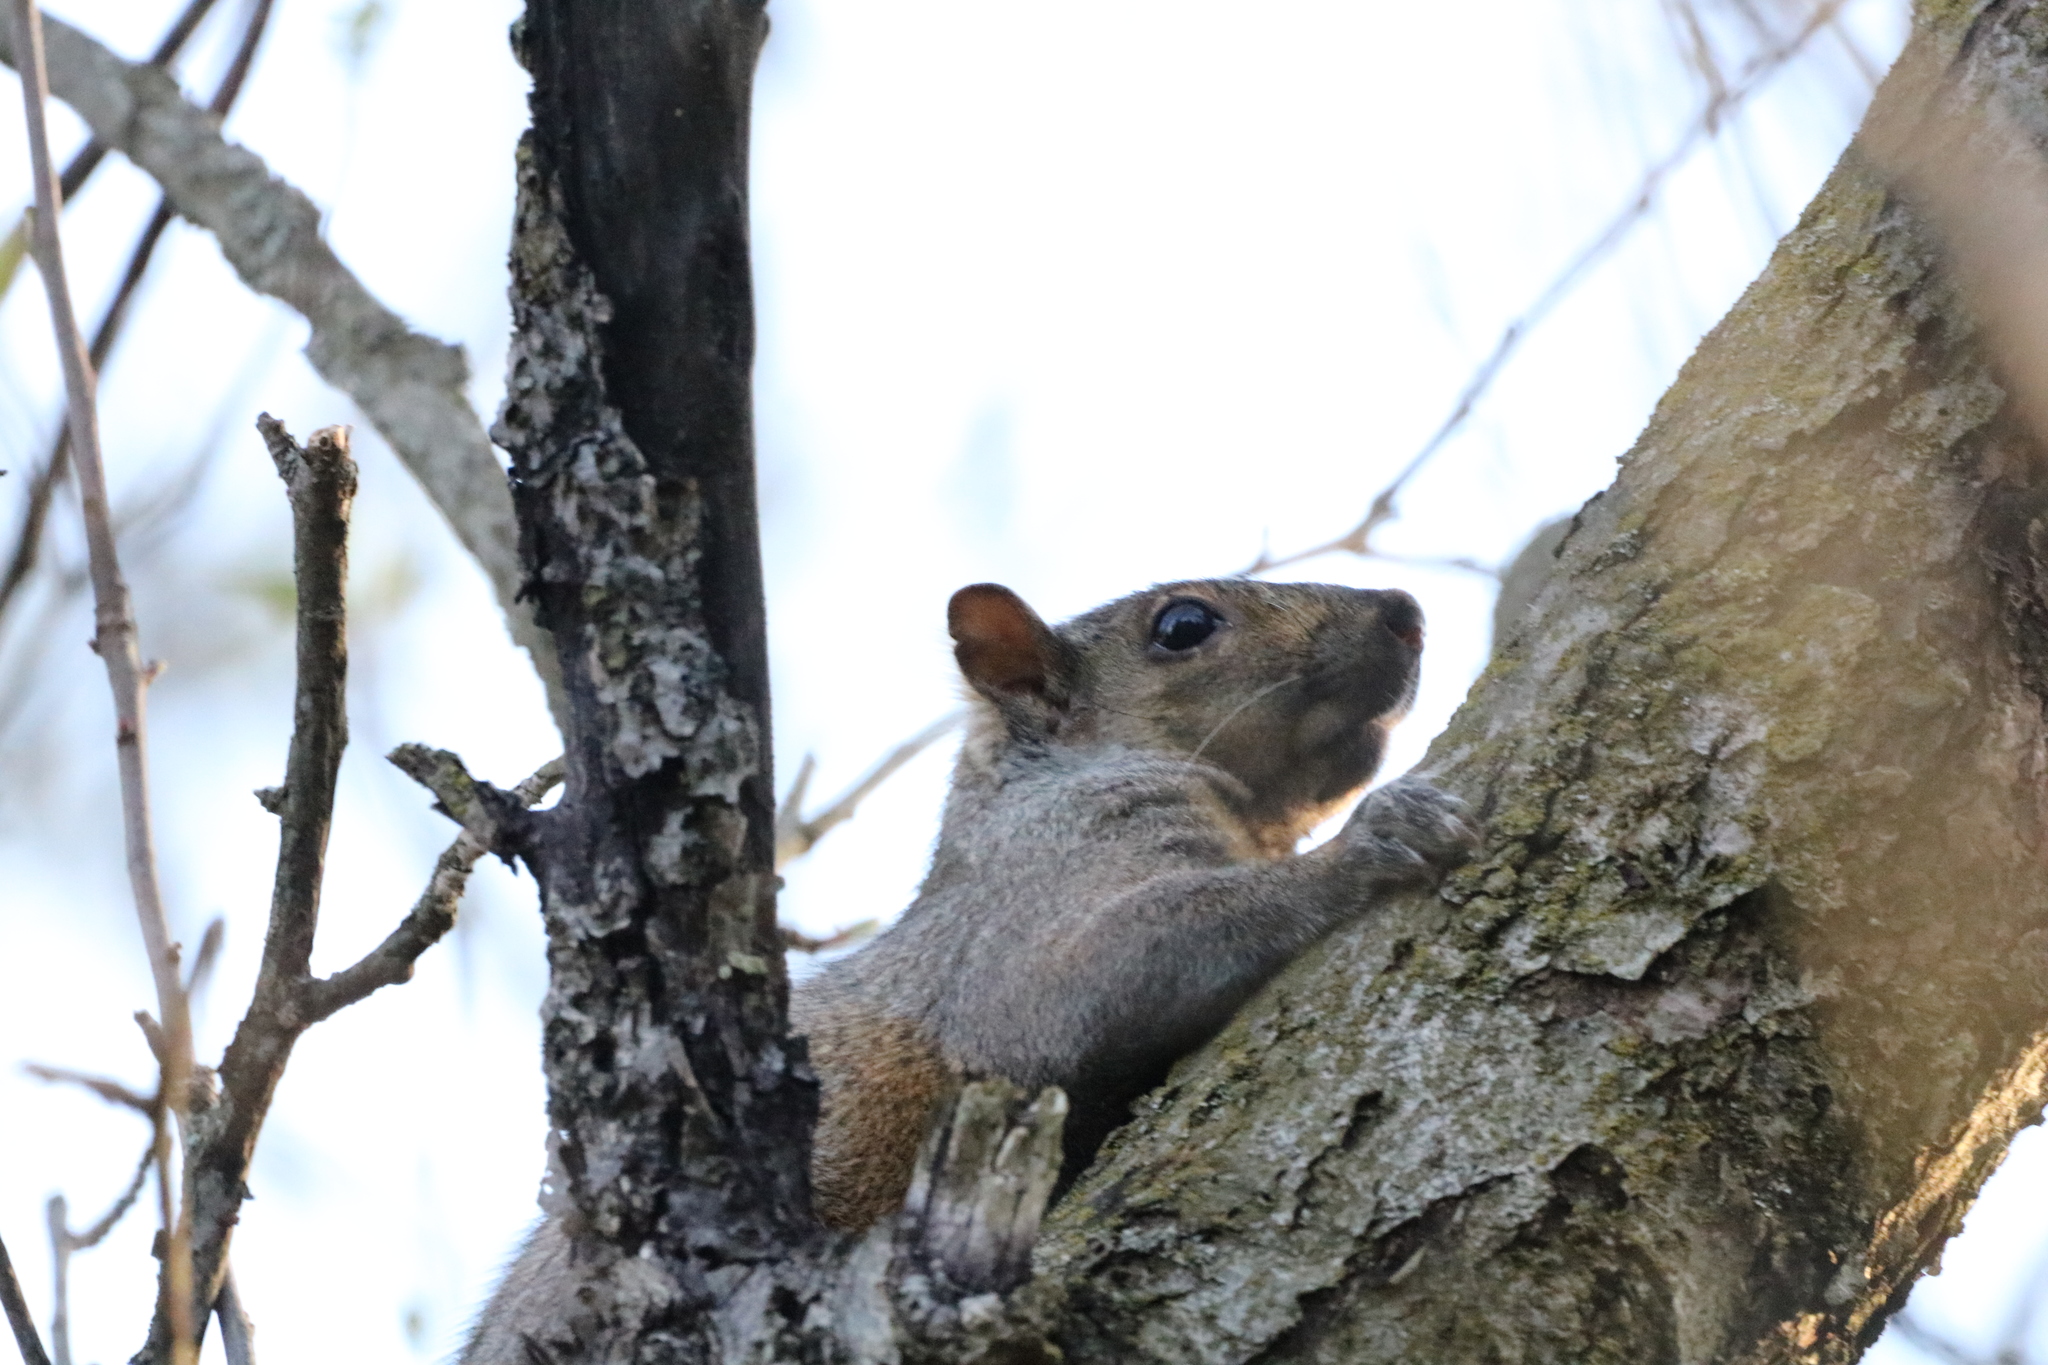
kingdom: Animalia
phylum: Chordata
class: Mammalia
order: Rodentia
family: Sciuridae
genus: Sciurus
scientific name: Sciurus carolinensis
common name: Eastern gray squirrel
